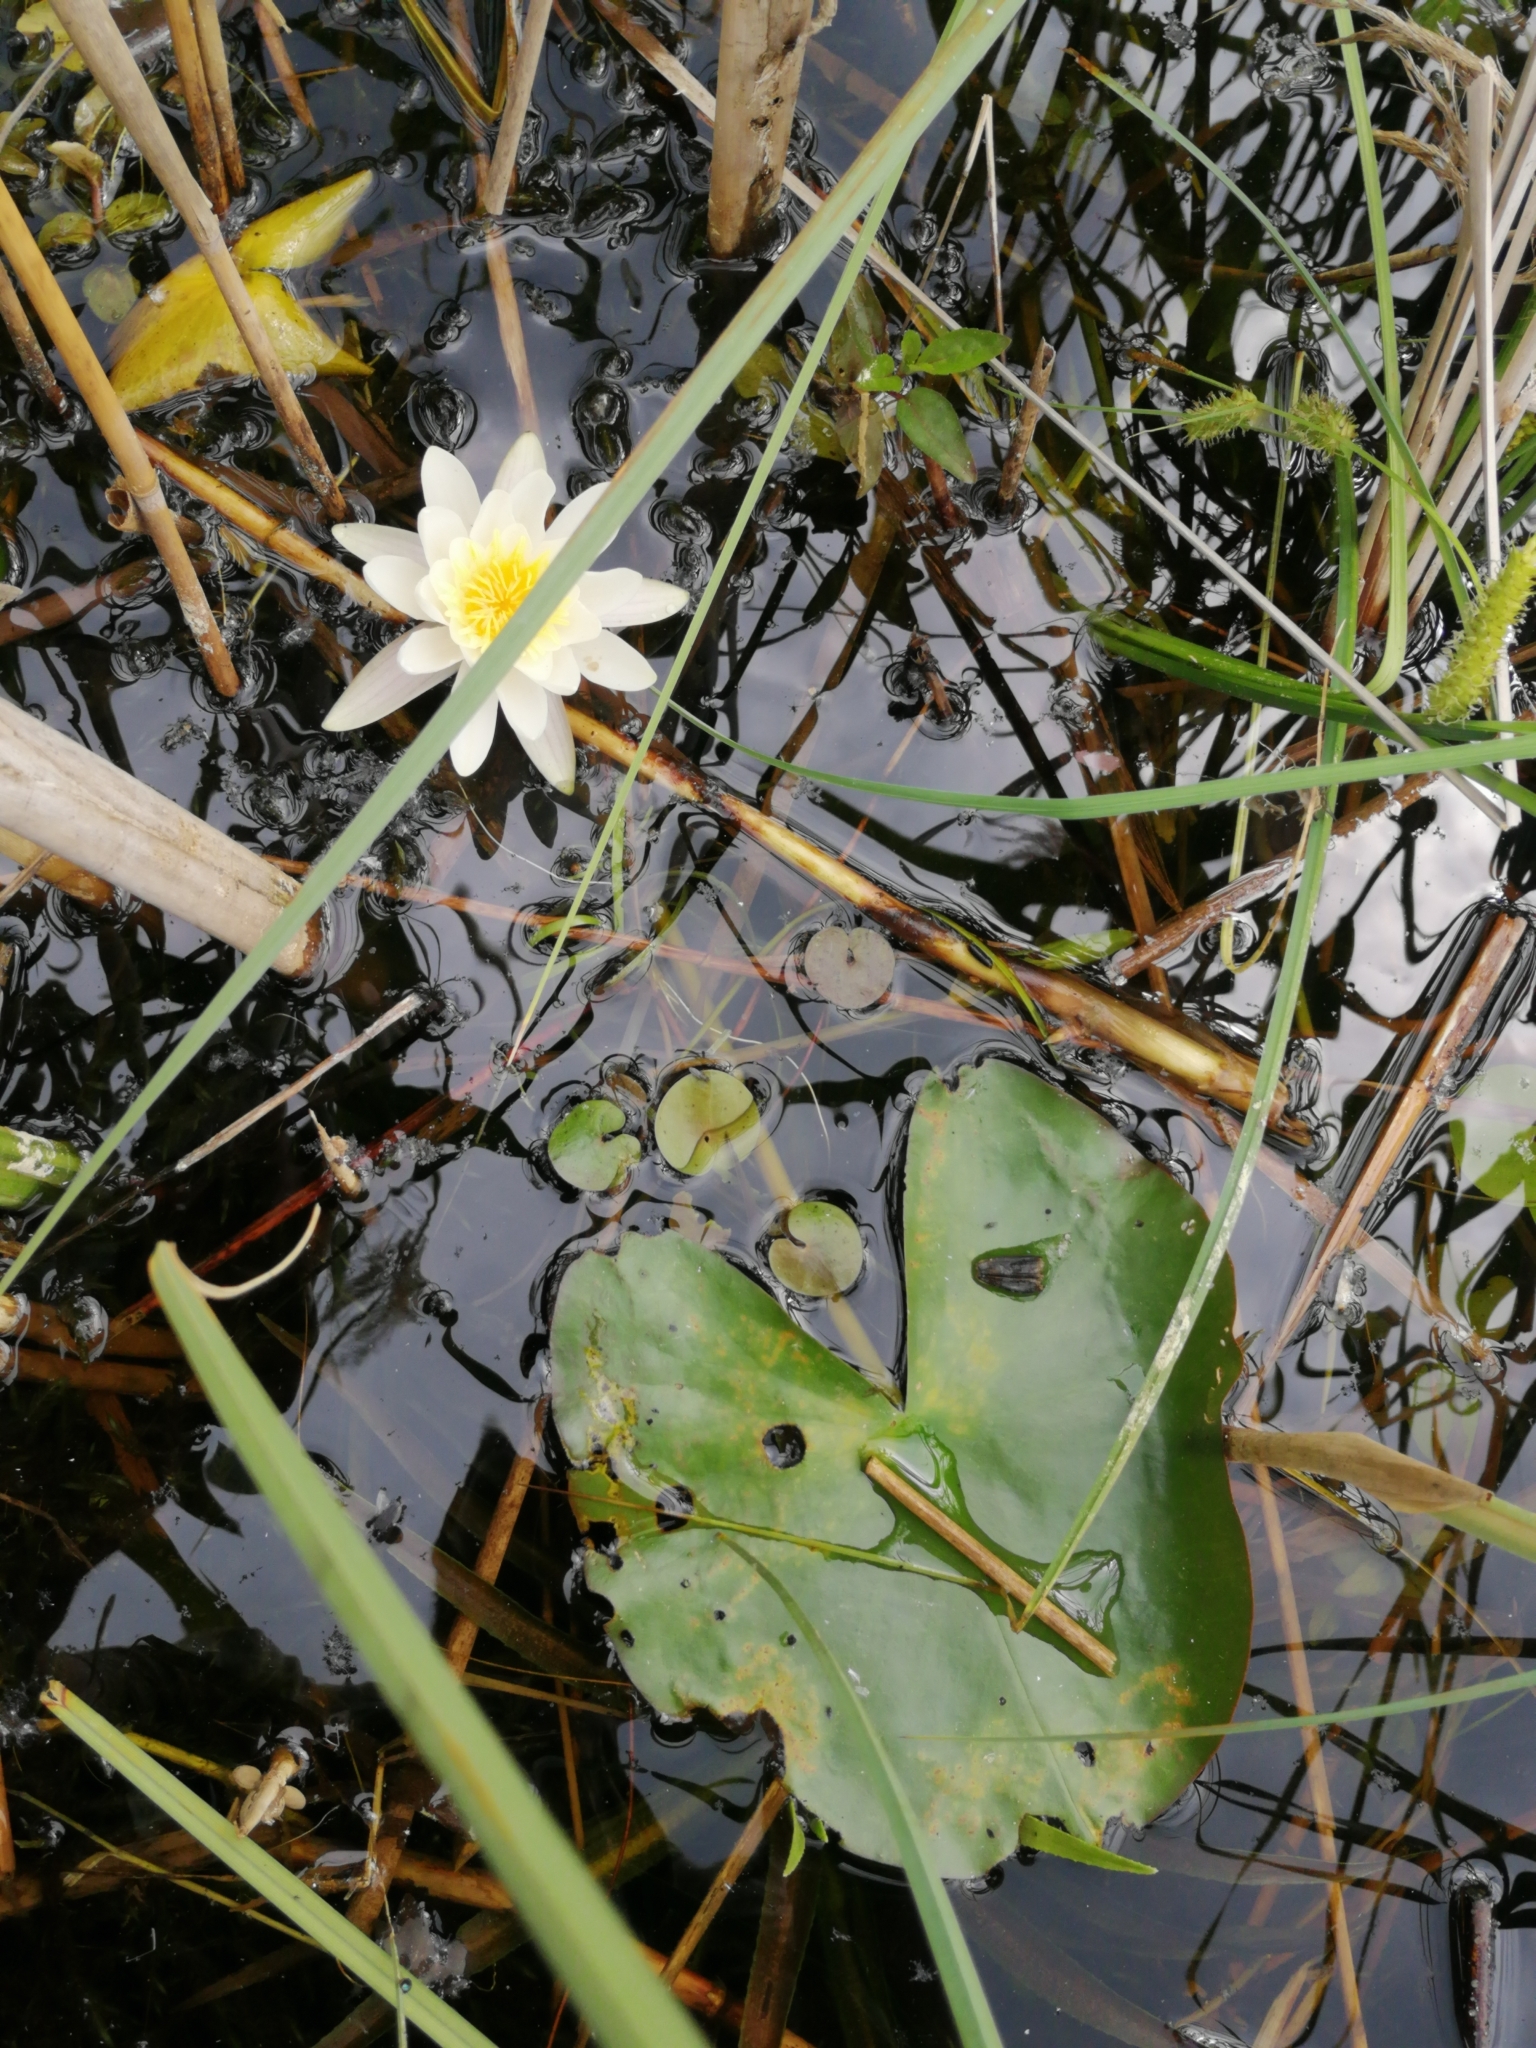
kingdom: Plantae
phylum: Tracheophyta
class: Magnoliopsida
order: Nymphaeales
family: Nymphaeaceae
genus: Nymphaea
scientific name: Nymphaea candida
